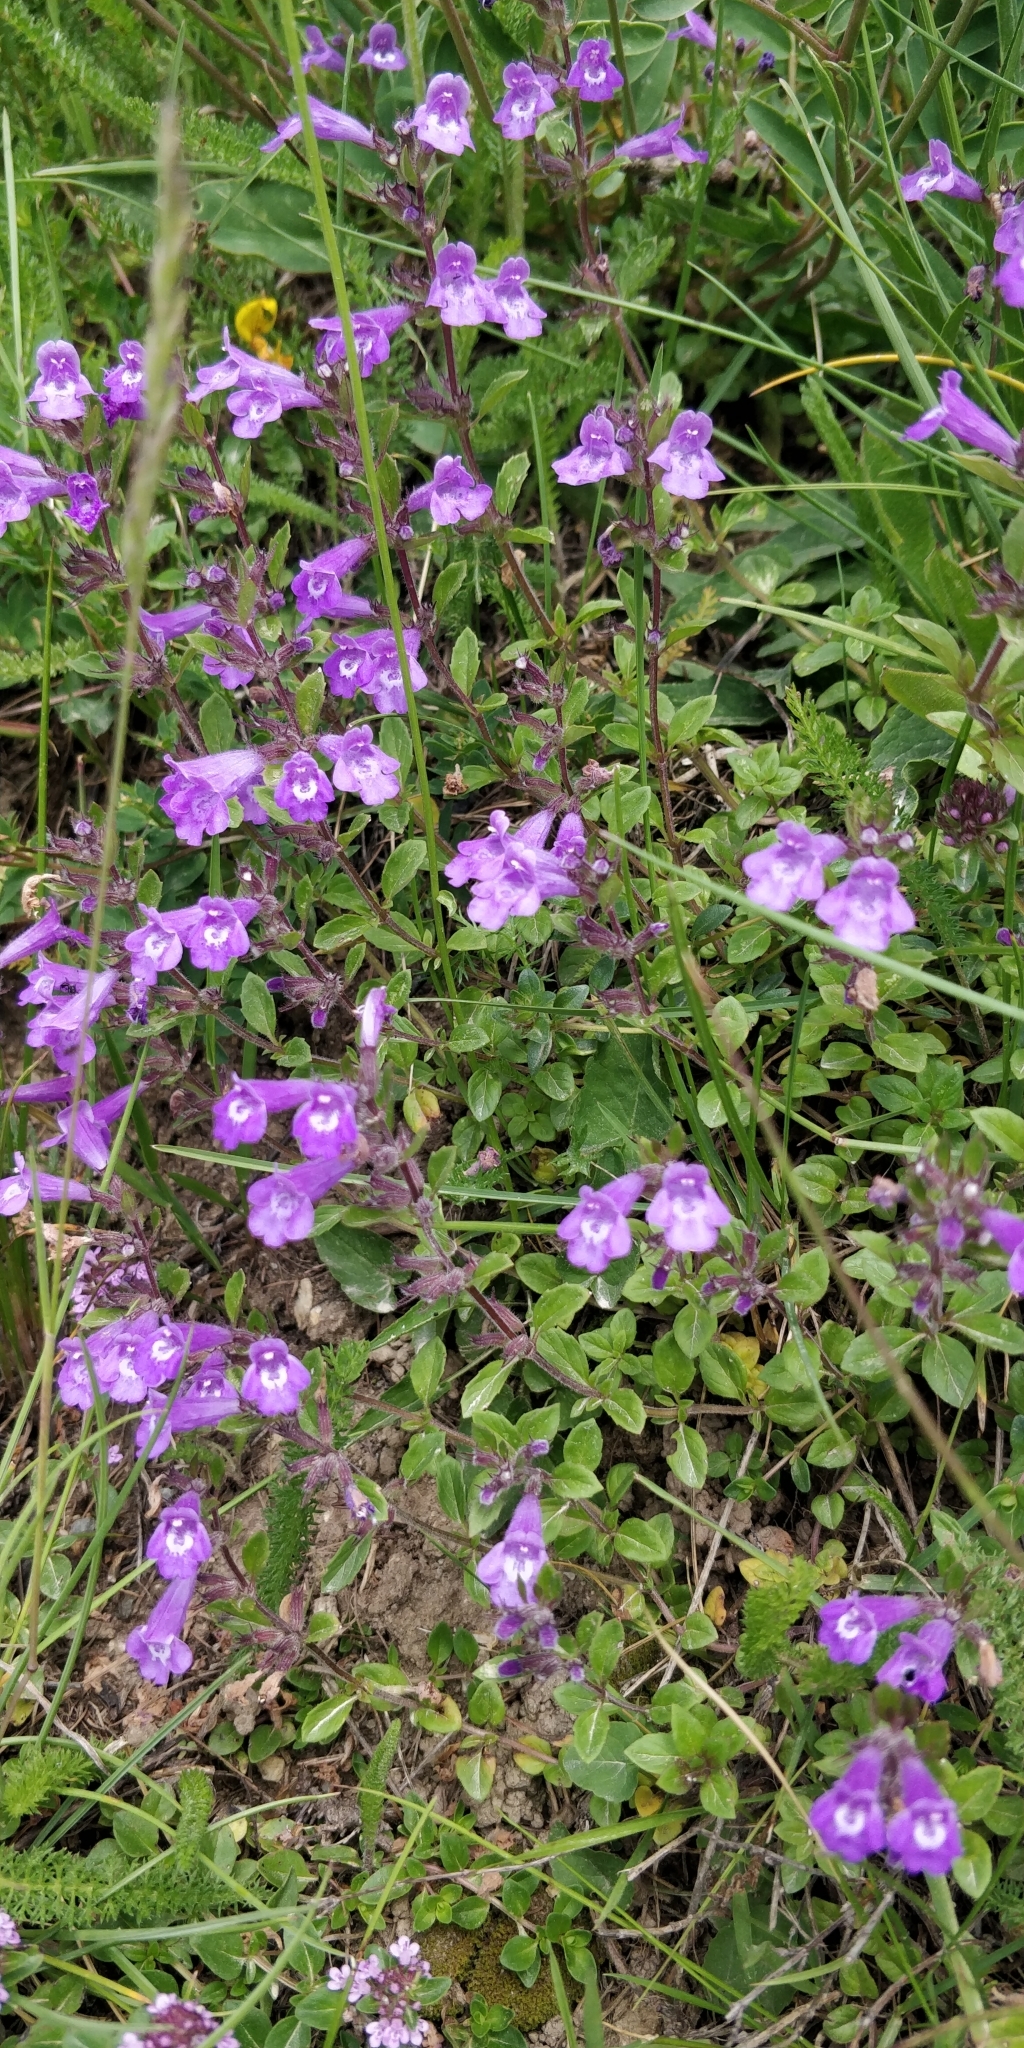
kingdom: Plantae
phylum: Tracheophyta
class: Magnoliopsida
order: Lamiales
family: Lamiaceae
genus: Clinopodium
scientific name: Clinopodium alpinum
